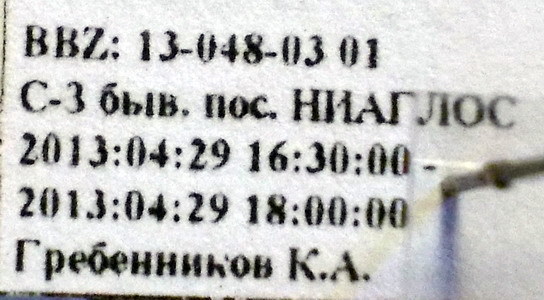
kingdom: Animalia
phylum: Arthropoda
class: Insecta
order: Hemiptera
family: Lygaeidae
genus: Kleidocerys
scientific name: Kleidocerys resedae
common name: Birch catkin bug
